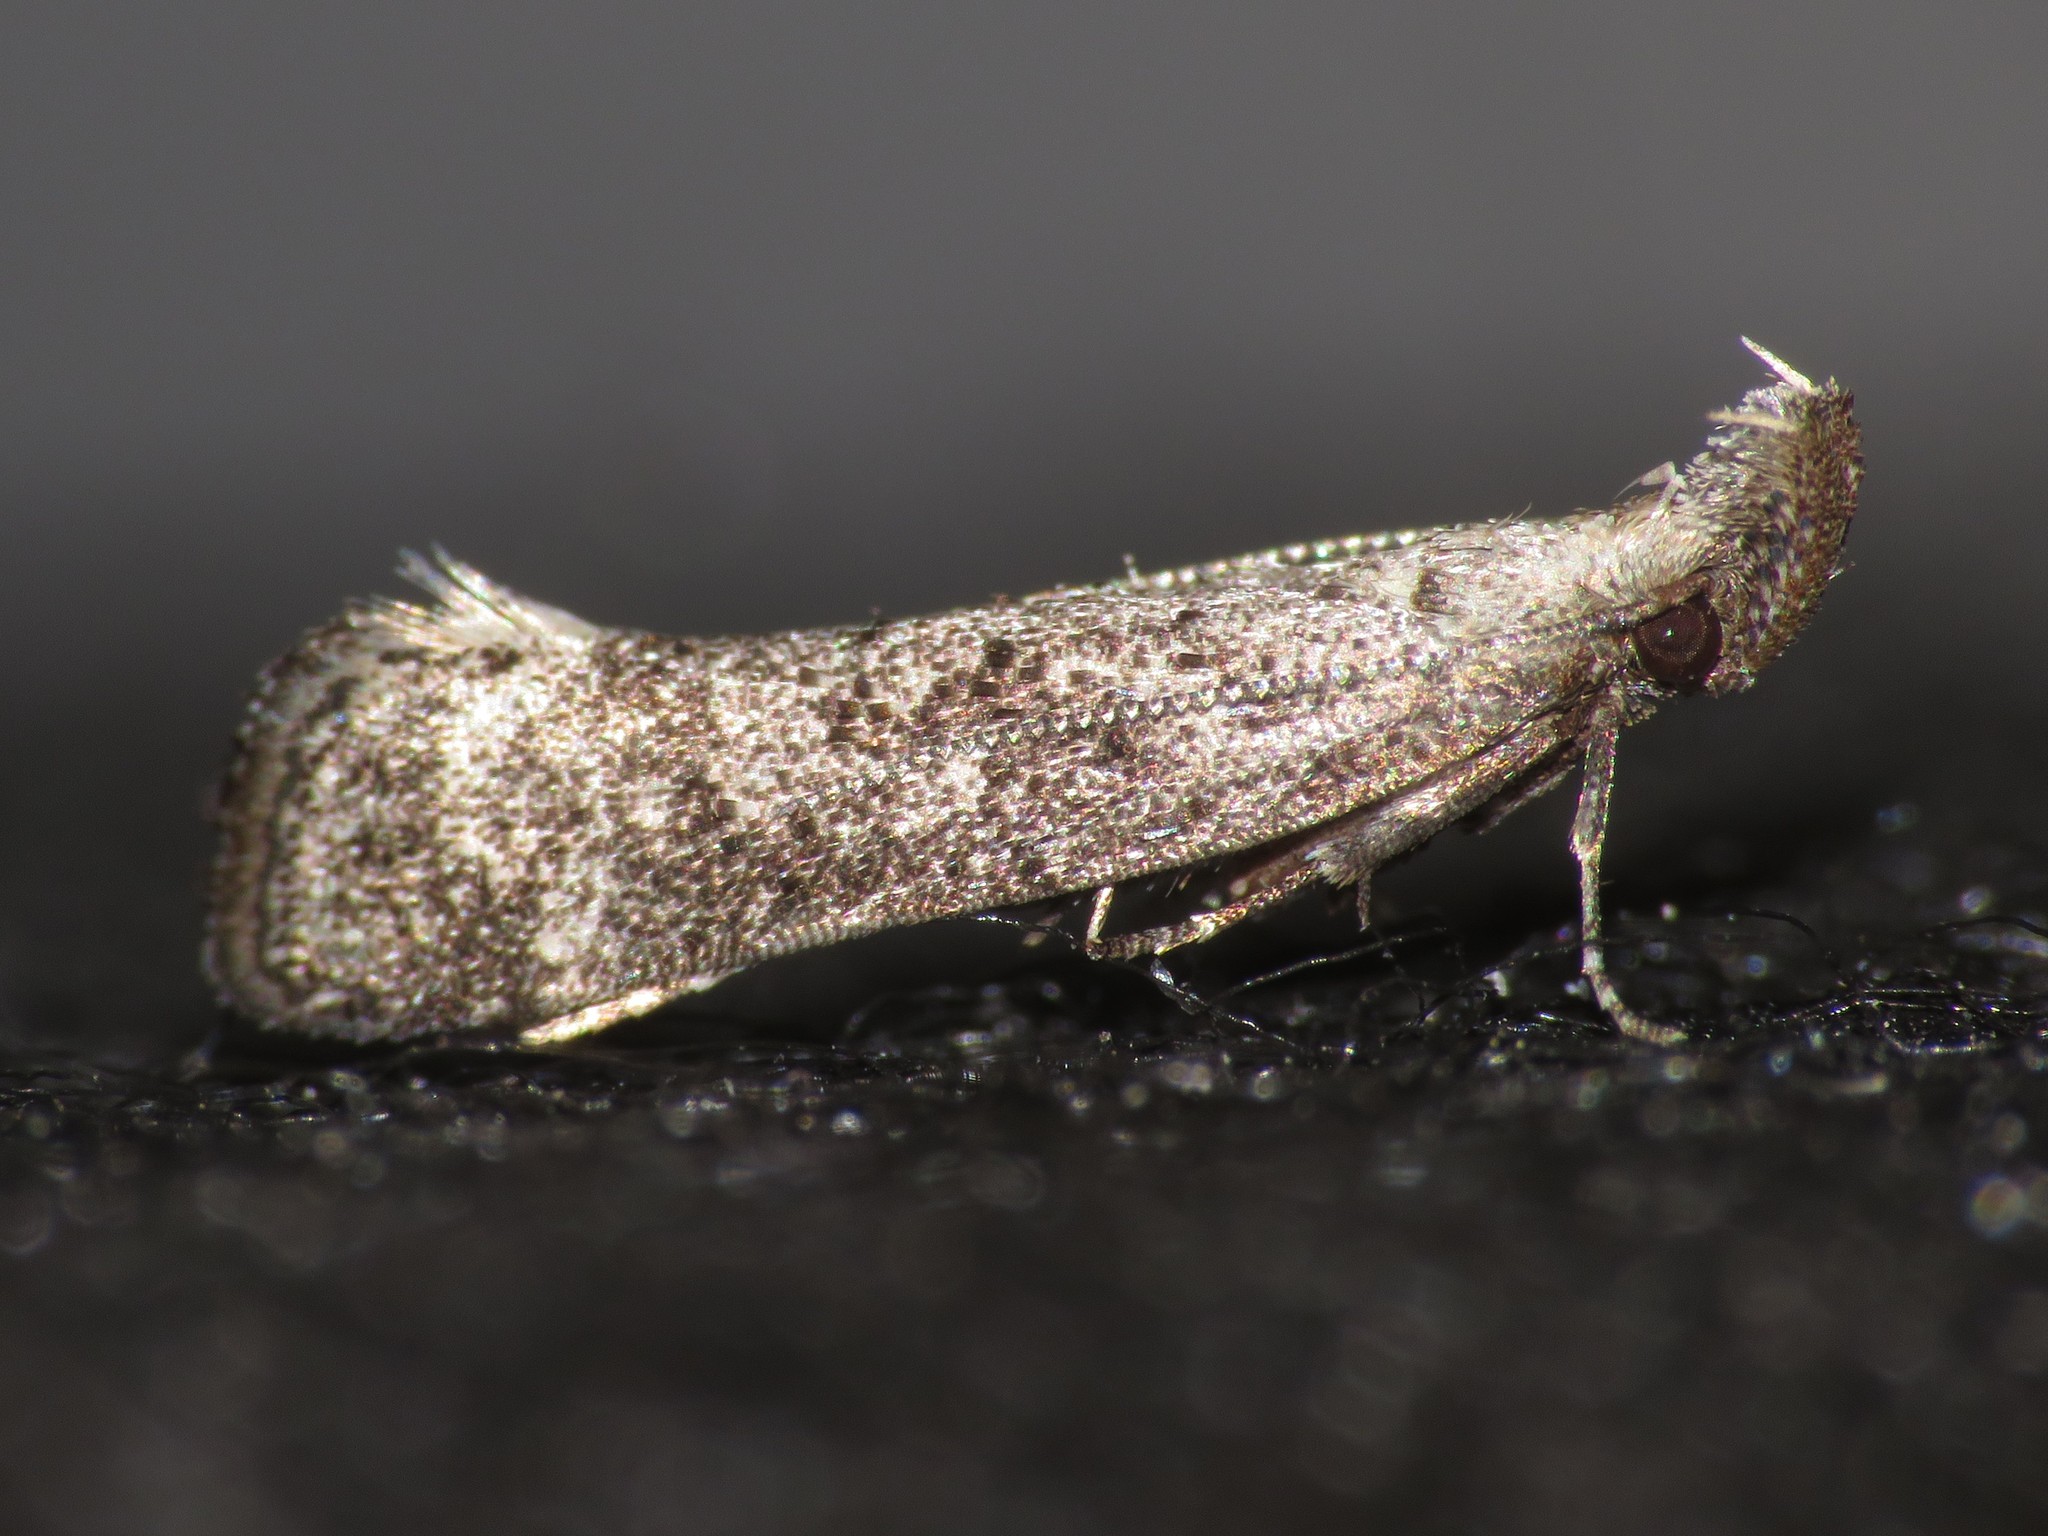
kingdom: Animalia
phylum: Arthropoda
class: Insecta
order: Lepidoptera
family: Gelechiidae
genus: Dichomeris
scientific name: Dichomeris inversella
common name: Inverse dichomeris moth
